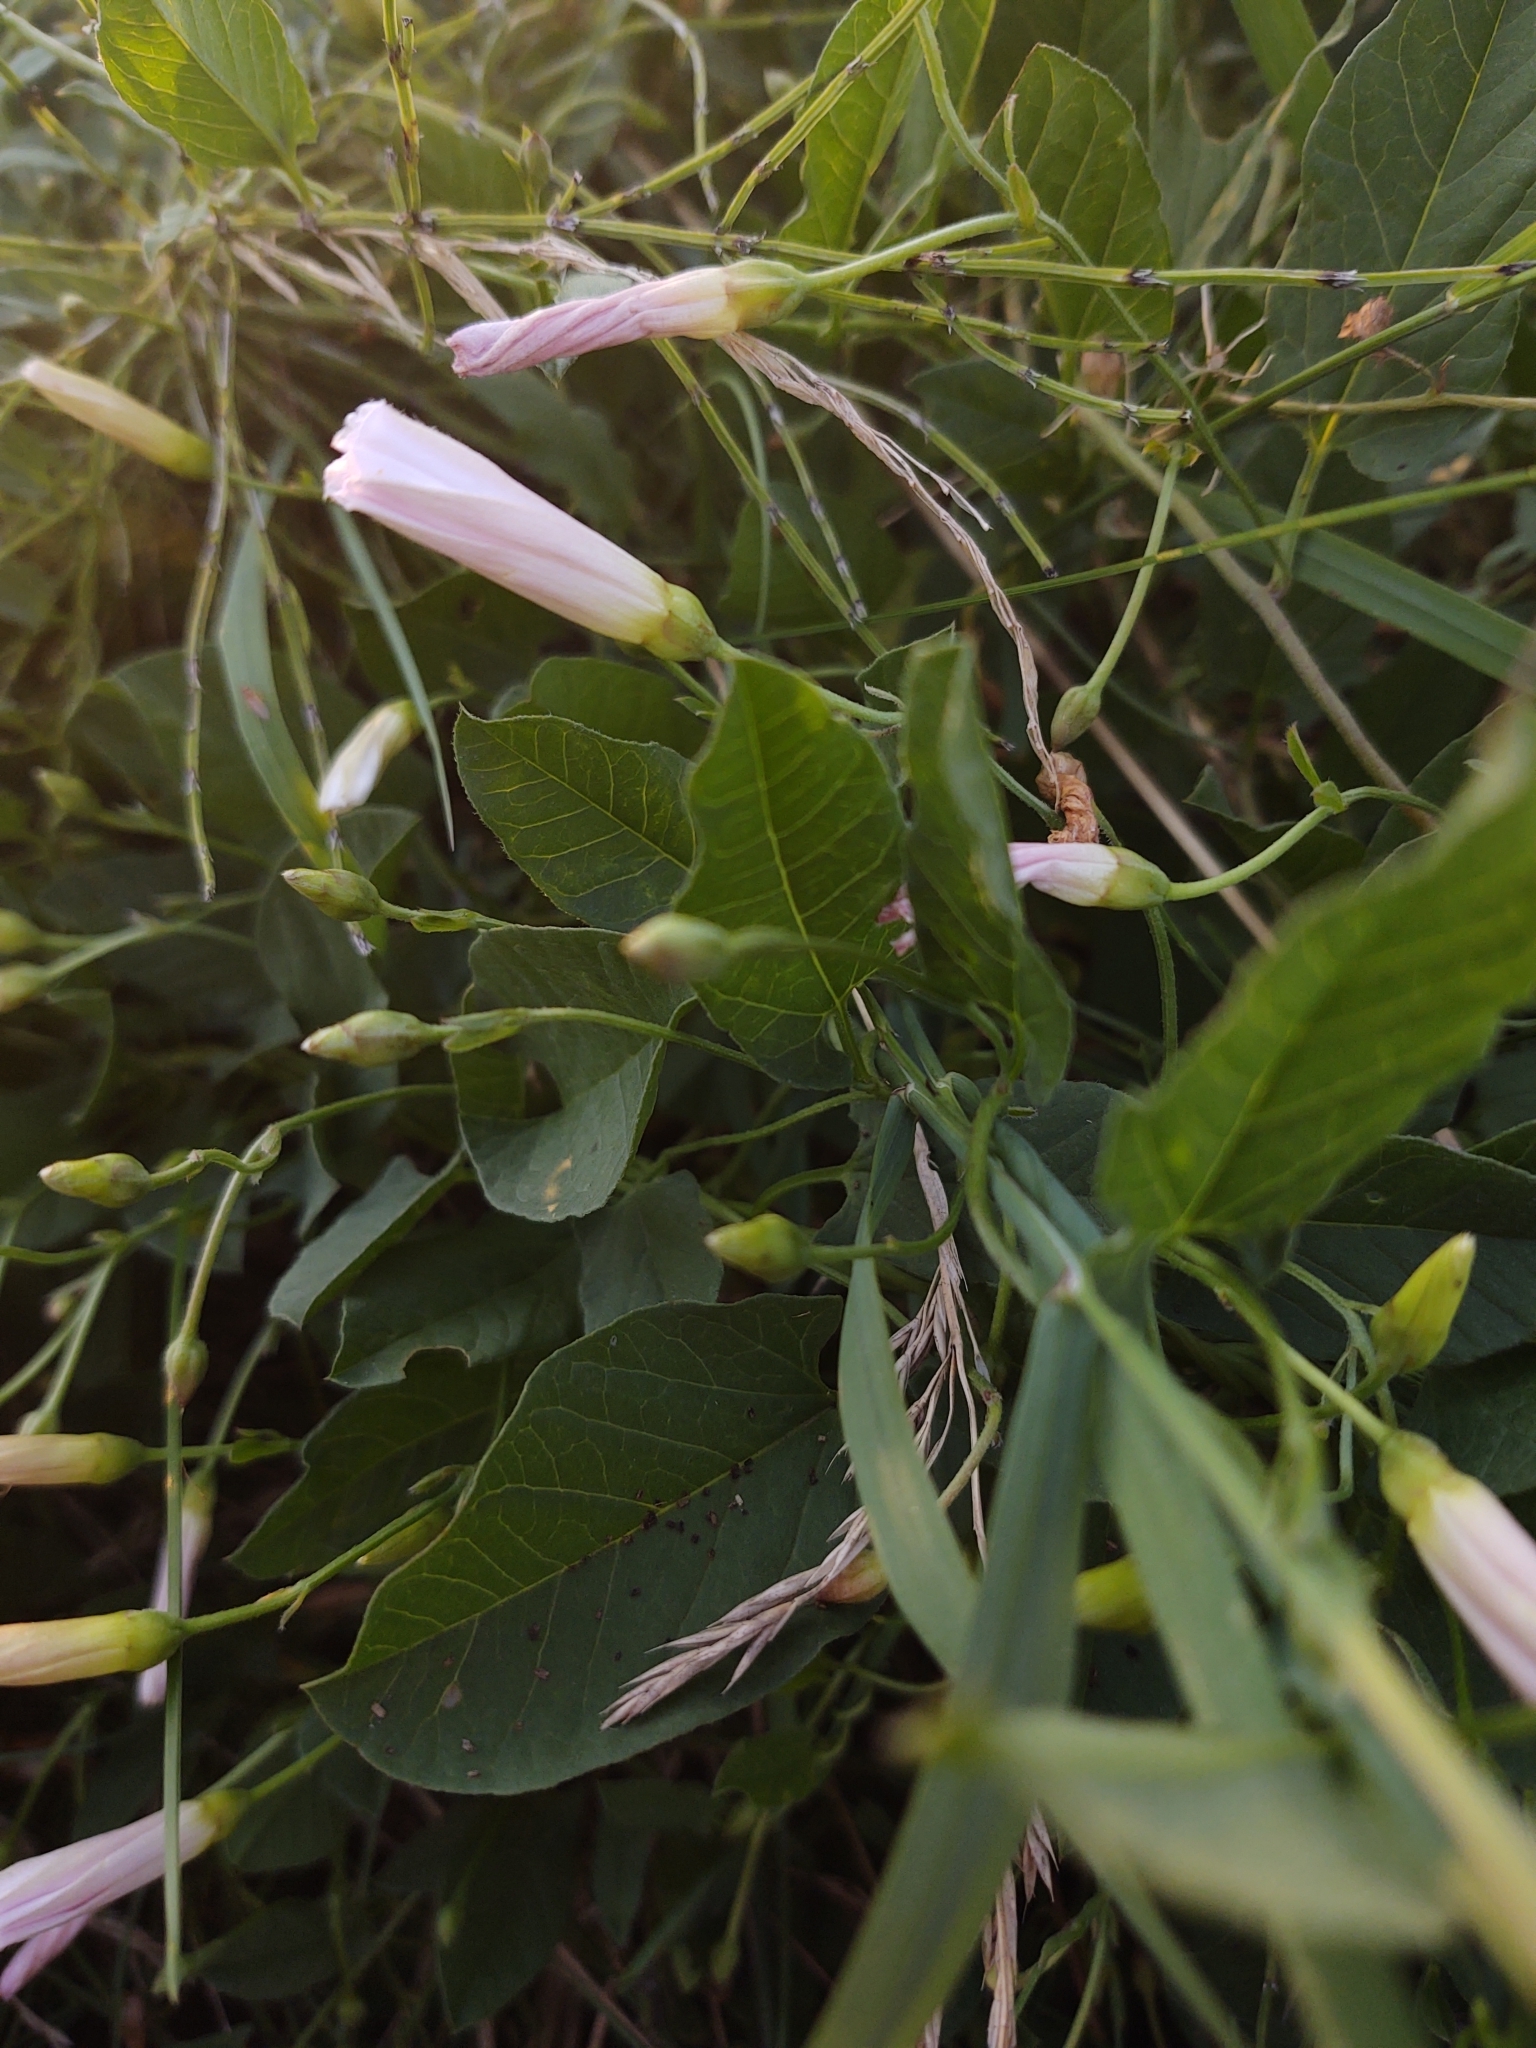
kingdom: Plantae
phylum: Tracheophyta
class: Magnoliopsida
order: Solanales
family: Convolvulaceae
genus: Convolvulus
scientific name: Convolvulus arvensis
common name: Field bindweed
